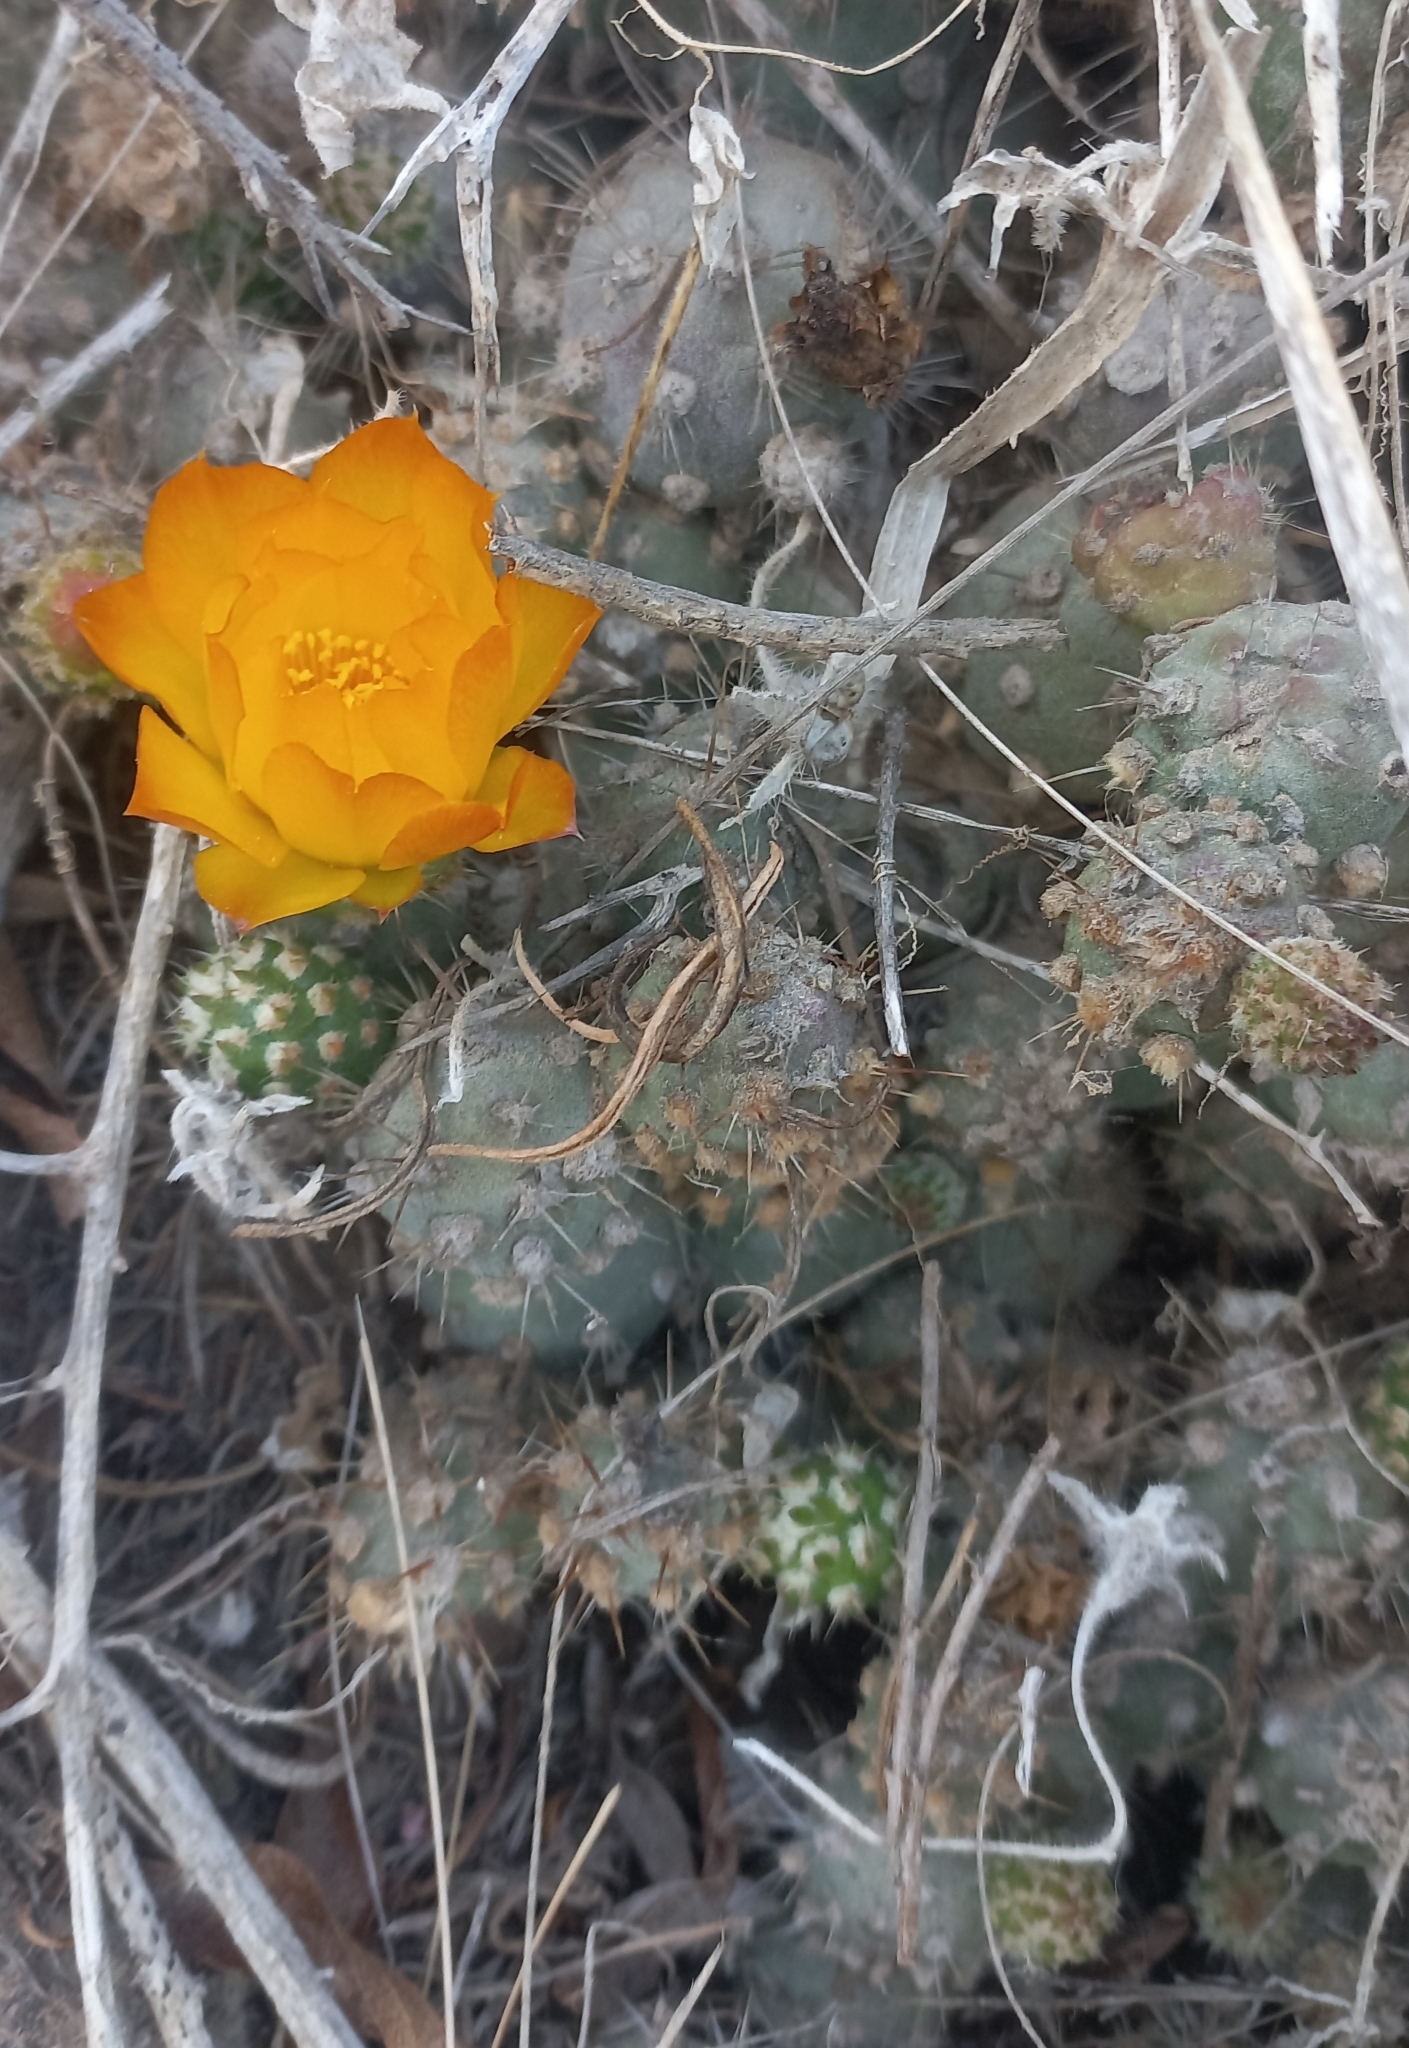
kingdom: Plantae
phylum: Tracheophyta
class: Magnoliopsida
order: Caryophyllales
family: Cactaceae
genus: Cumulopuntia
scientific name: Cumulopuntia leucophaea
